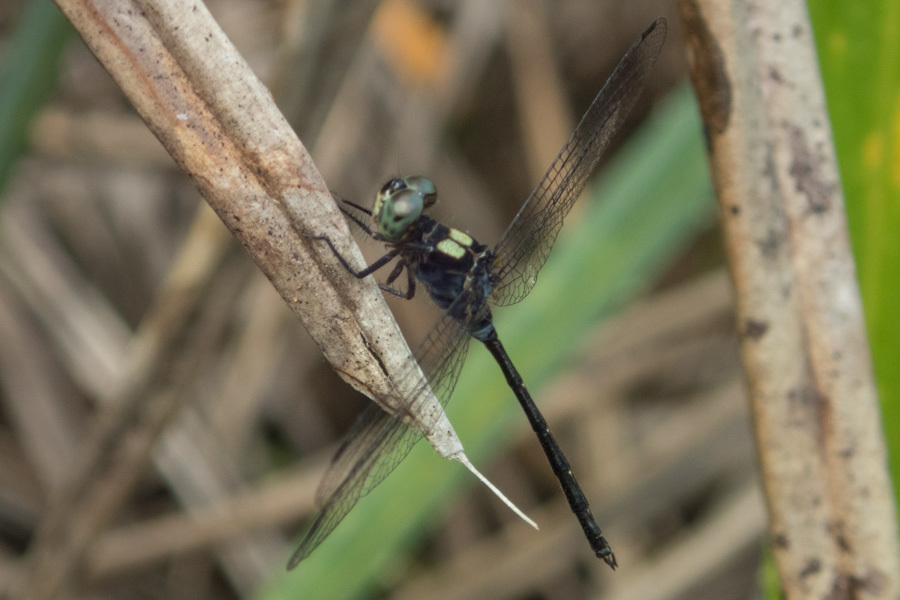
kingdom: Animalia
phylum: Arthropoda
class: Insecta
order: Odonata
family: Libellulidae
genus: Pornothemis
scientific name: Pornothemis serrata
